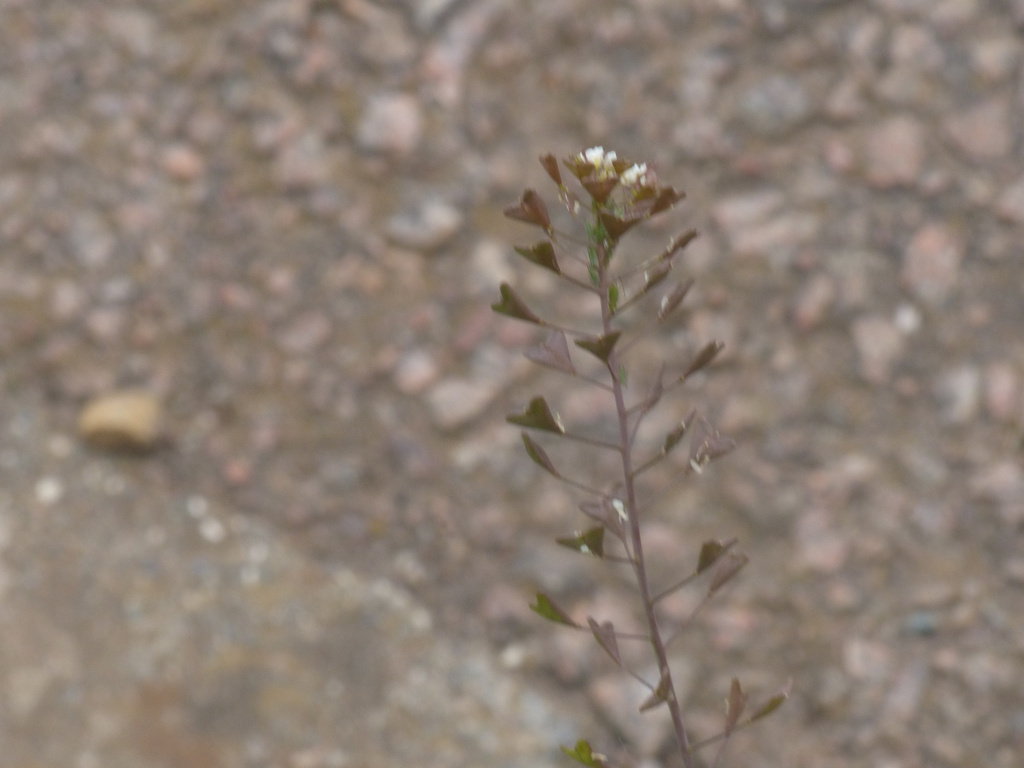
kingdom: Plantae
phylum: Tracheophyta
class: Magnoliopsida
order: Brassicales
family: Brassicaceae
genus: Capsella
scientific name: Capsella bursa-pastoris
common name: Shepherd's purse
